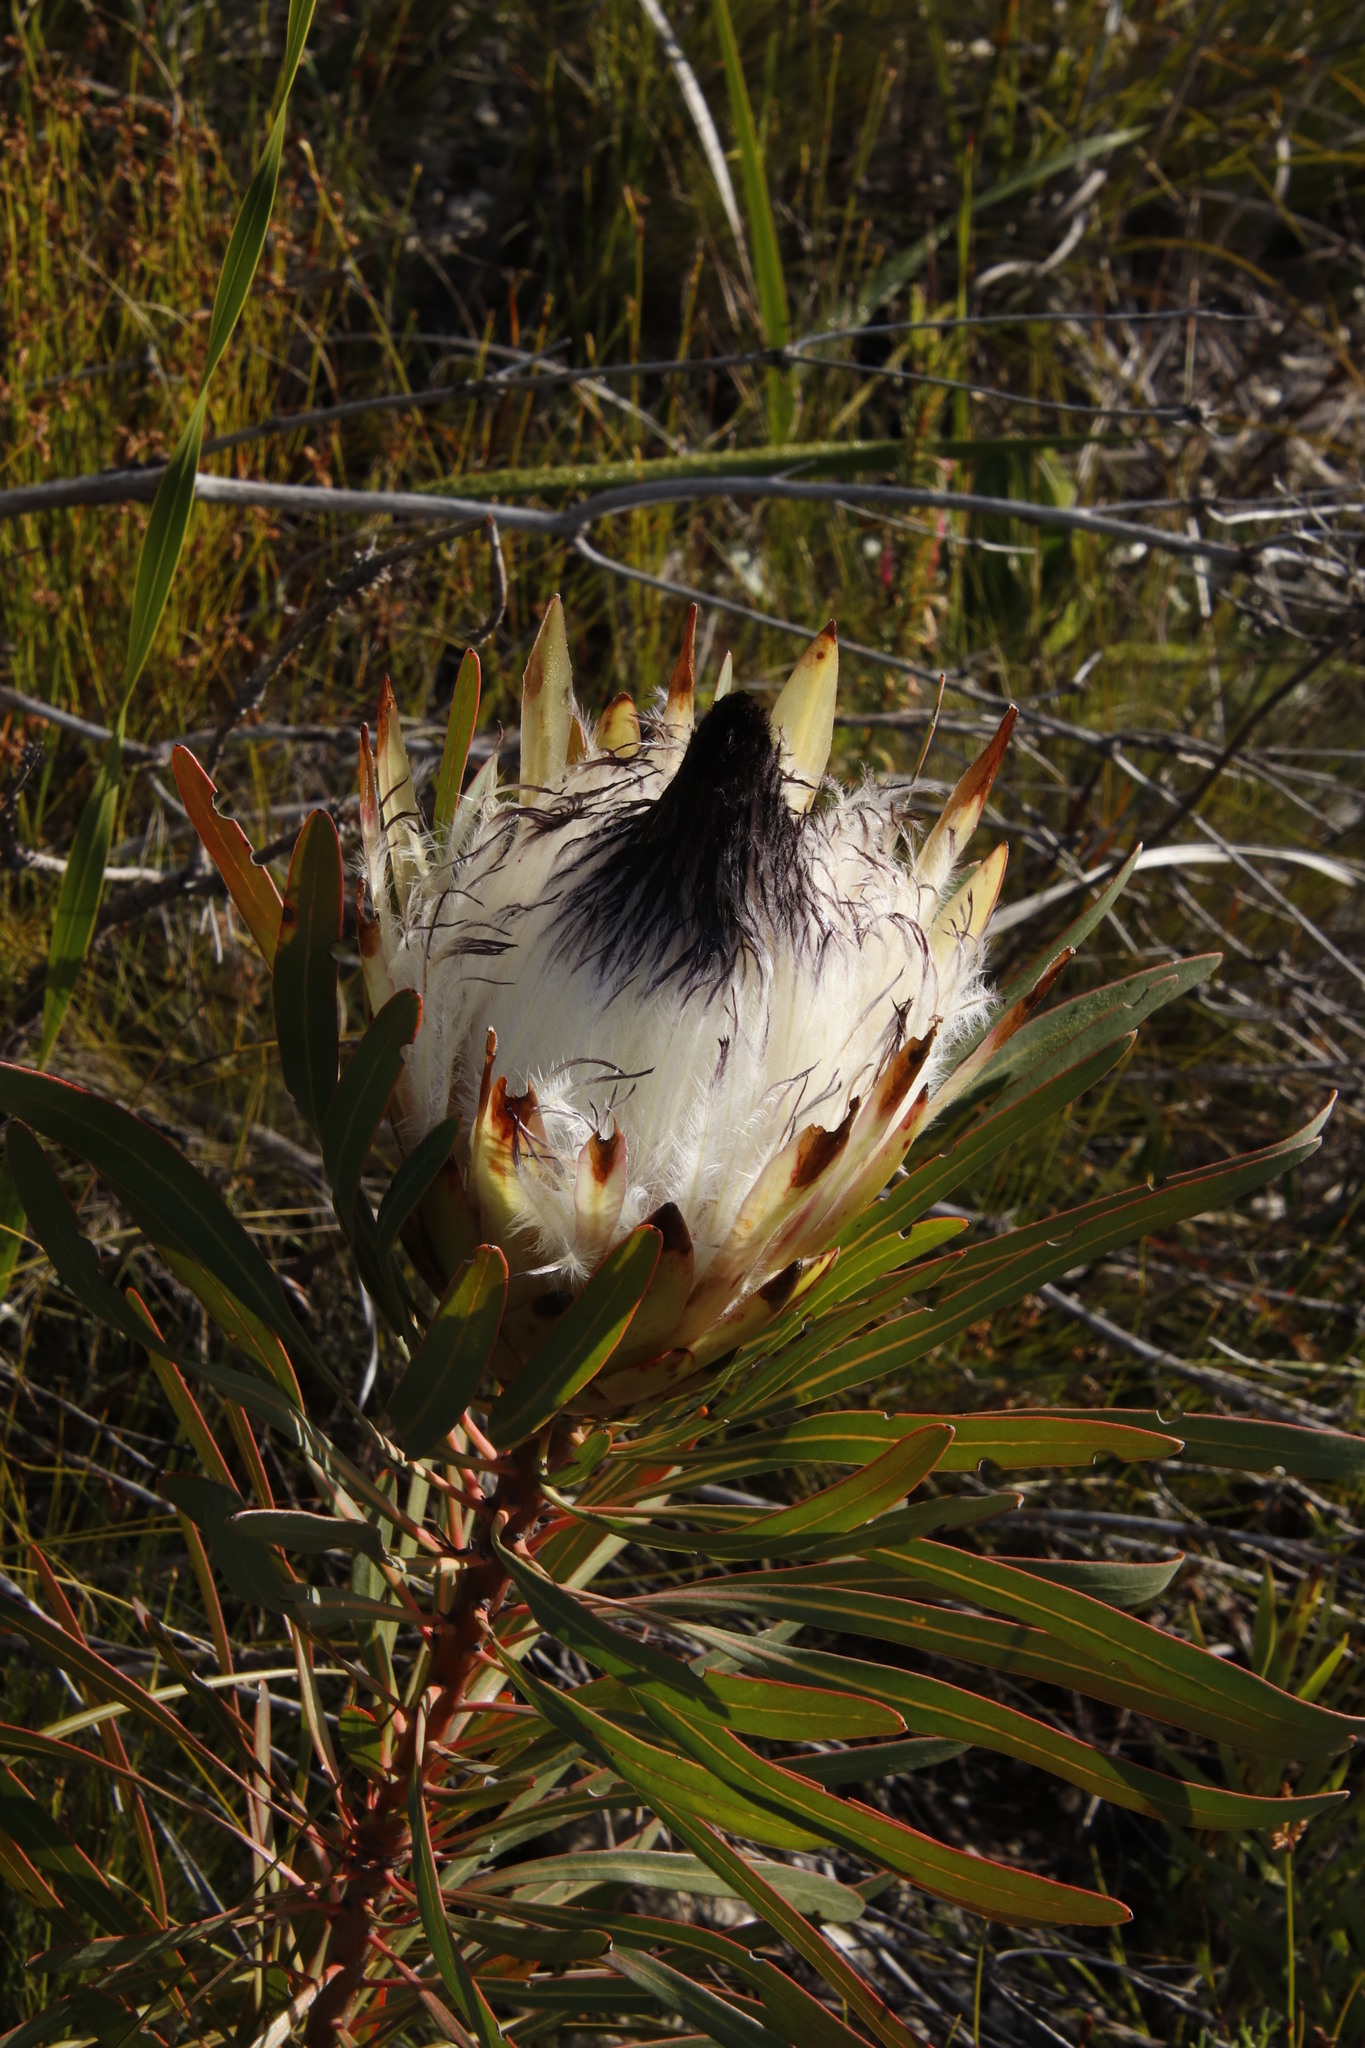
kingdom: Plantae
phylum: Tracheophyta
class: Magnoliopsida
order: Proteales
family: Proteaceae
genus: Protea
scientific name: Protea longifolia
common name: Long-leaf sugarbush
